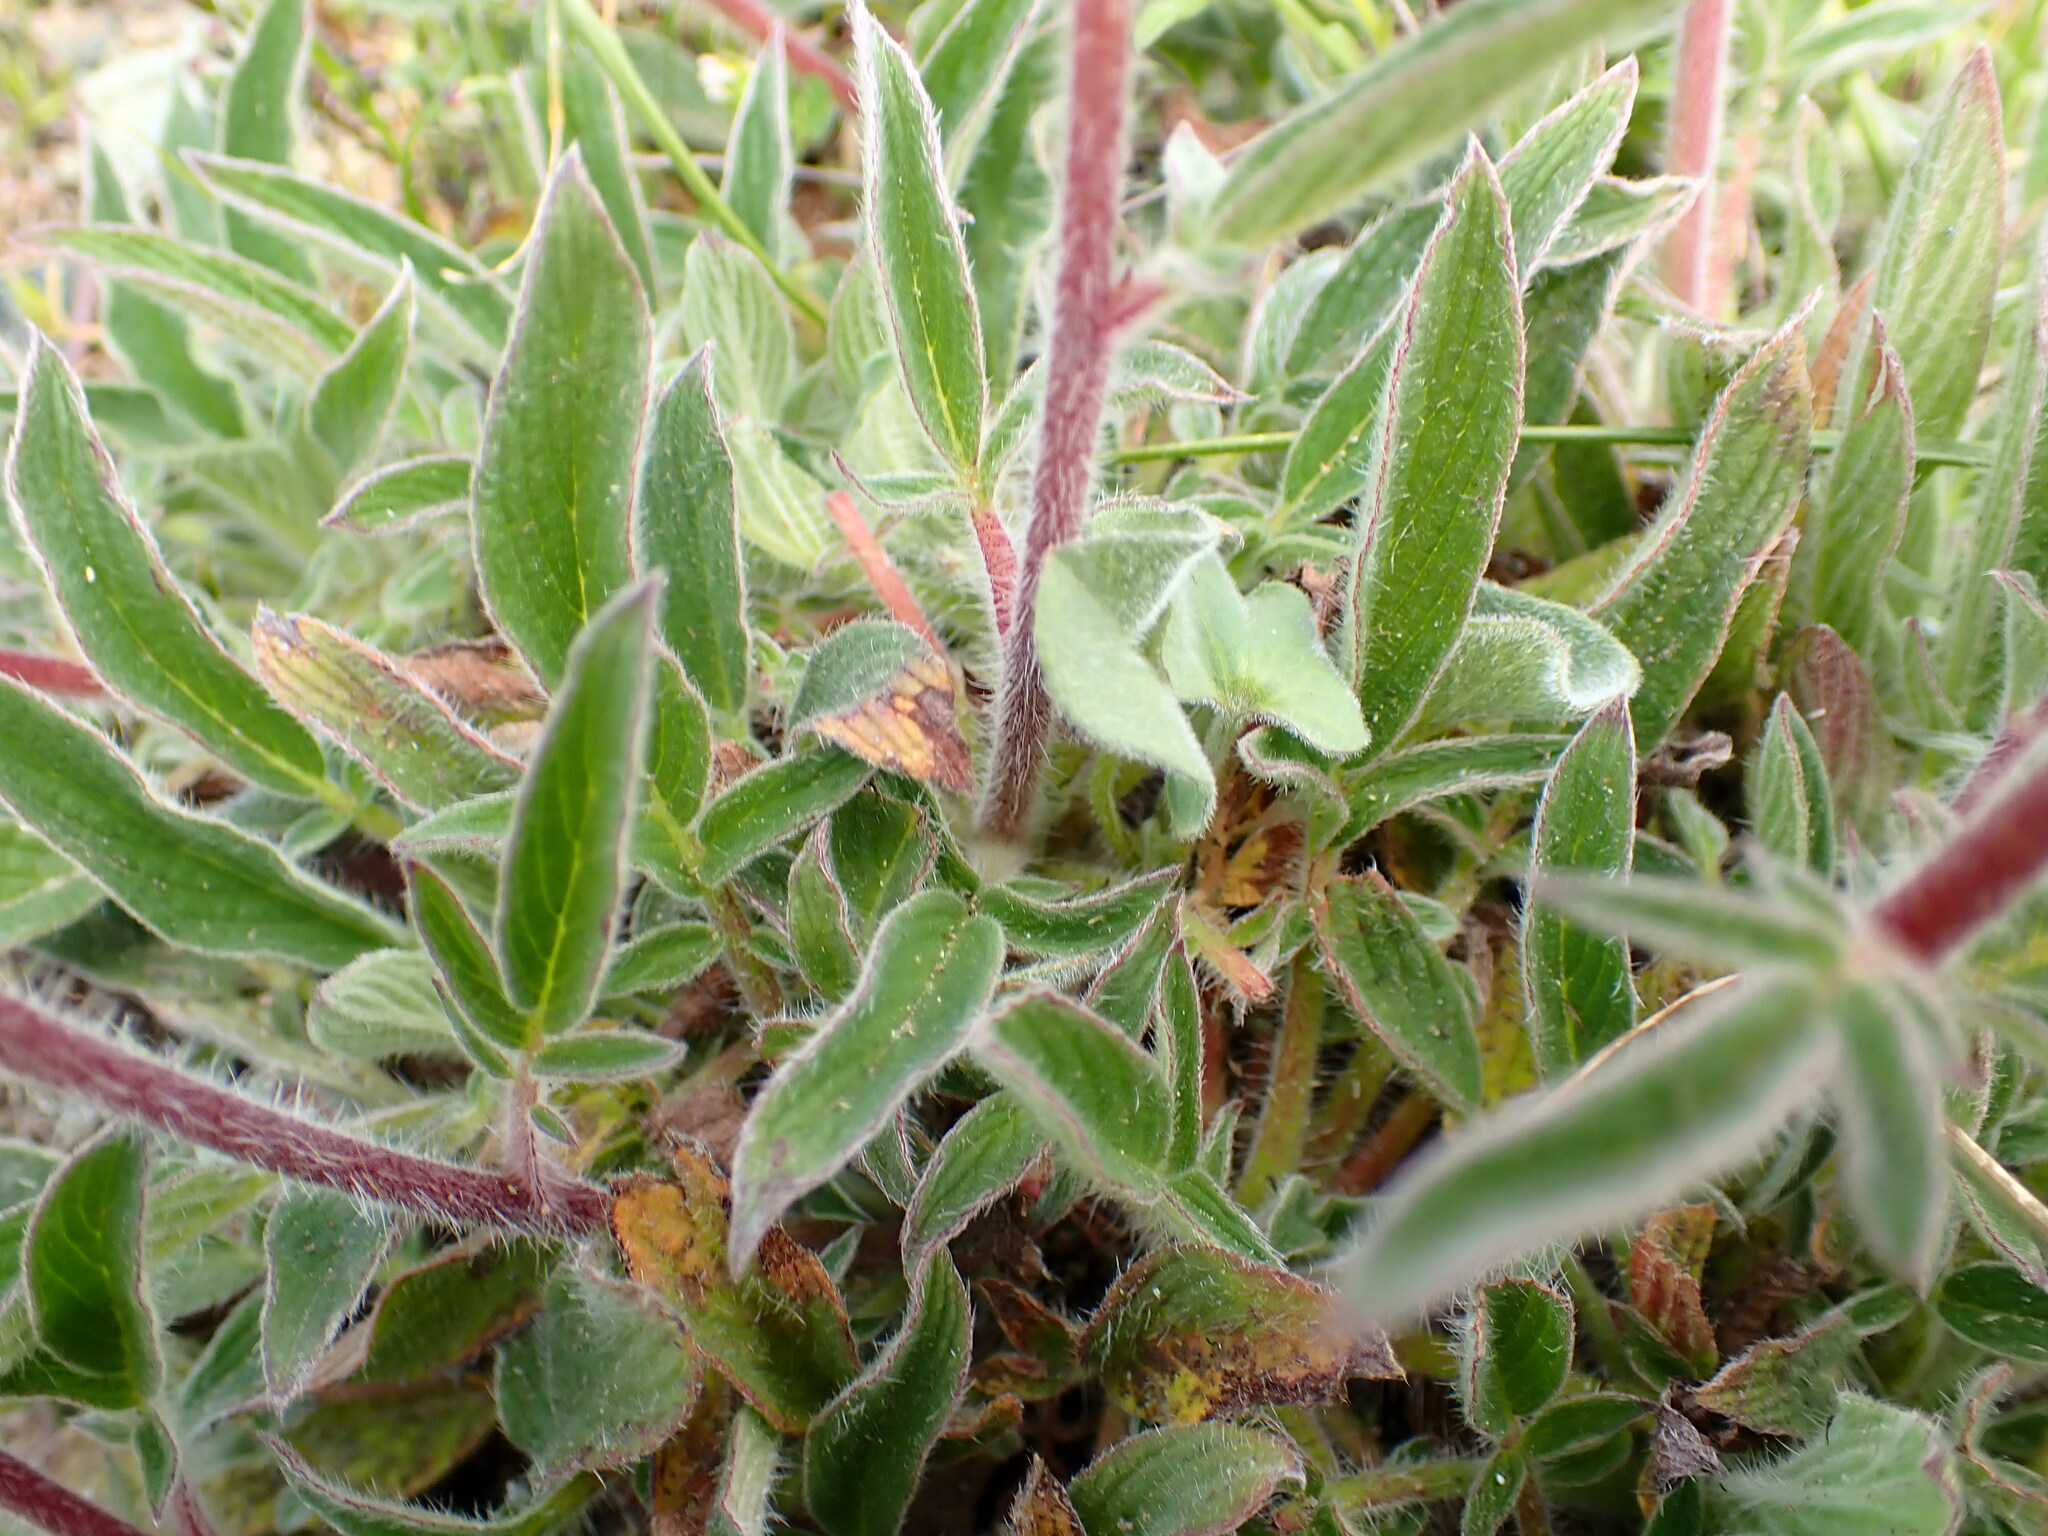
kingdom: Plantae
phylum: Tracheophyta
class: Magnoliopsida
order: Boraginales
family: Hydrophyllaceae
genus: Phacelia
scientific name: Phacelia californica
